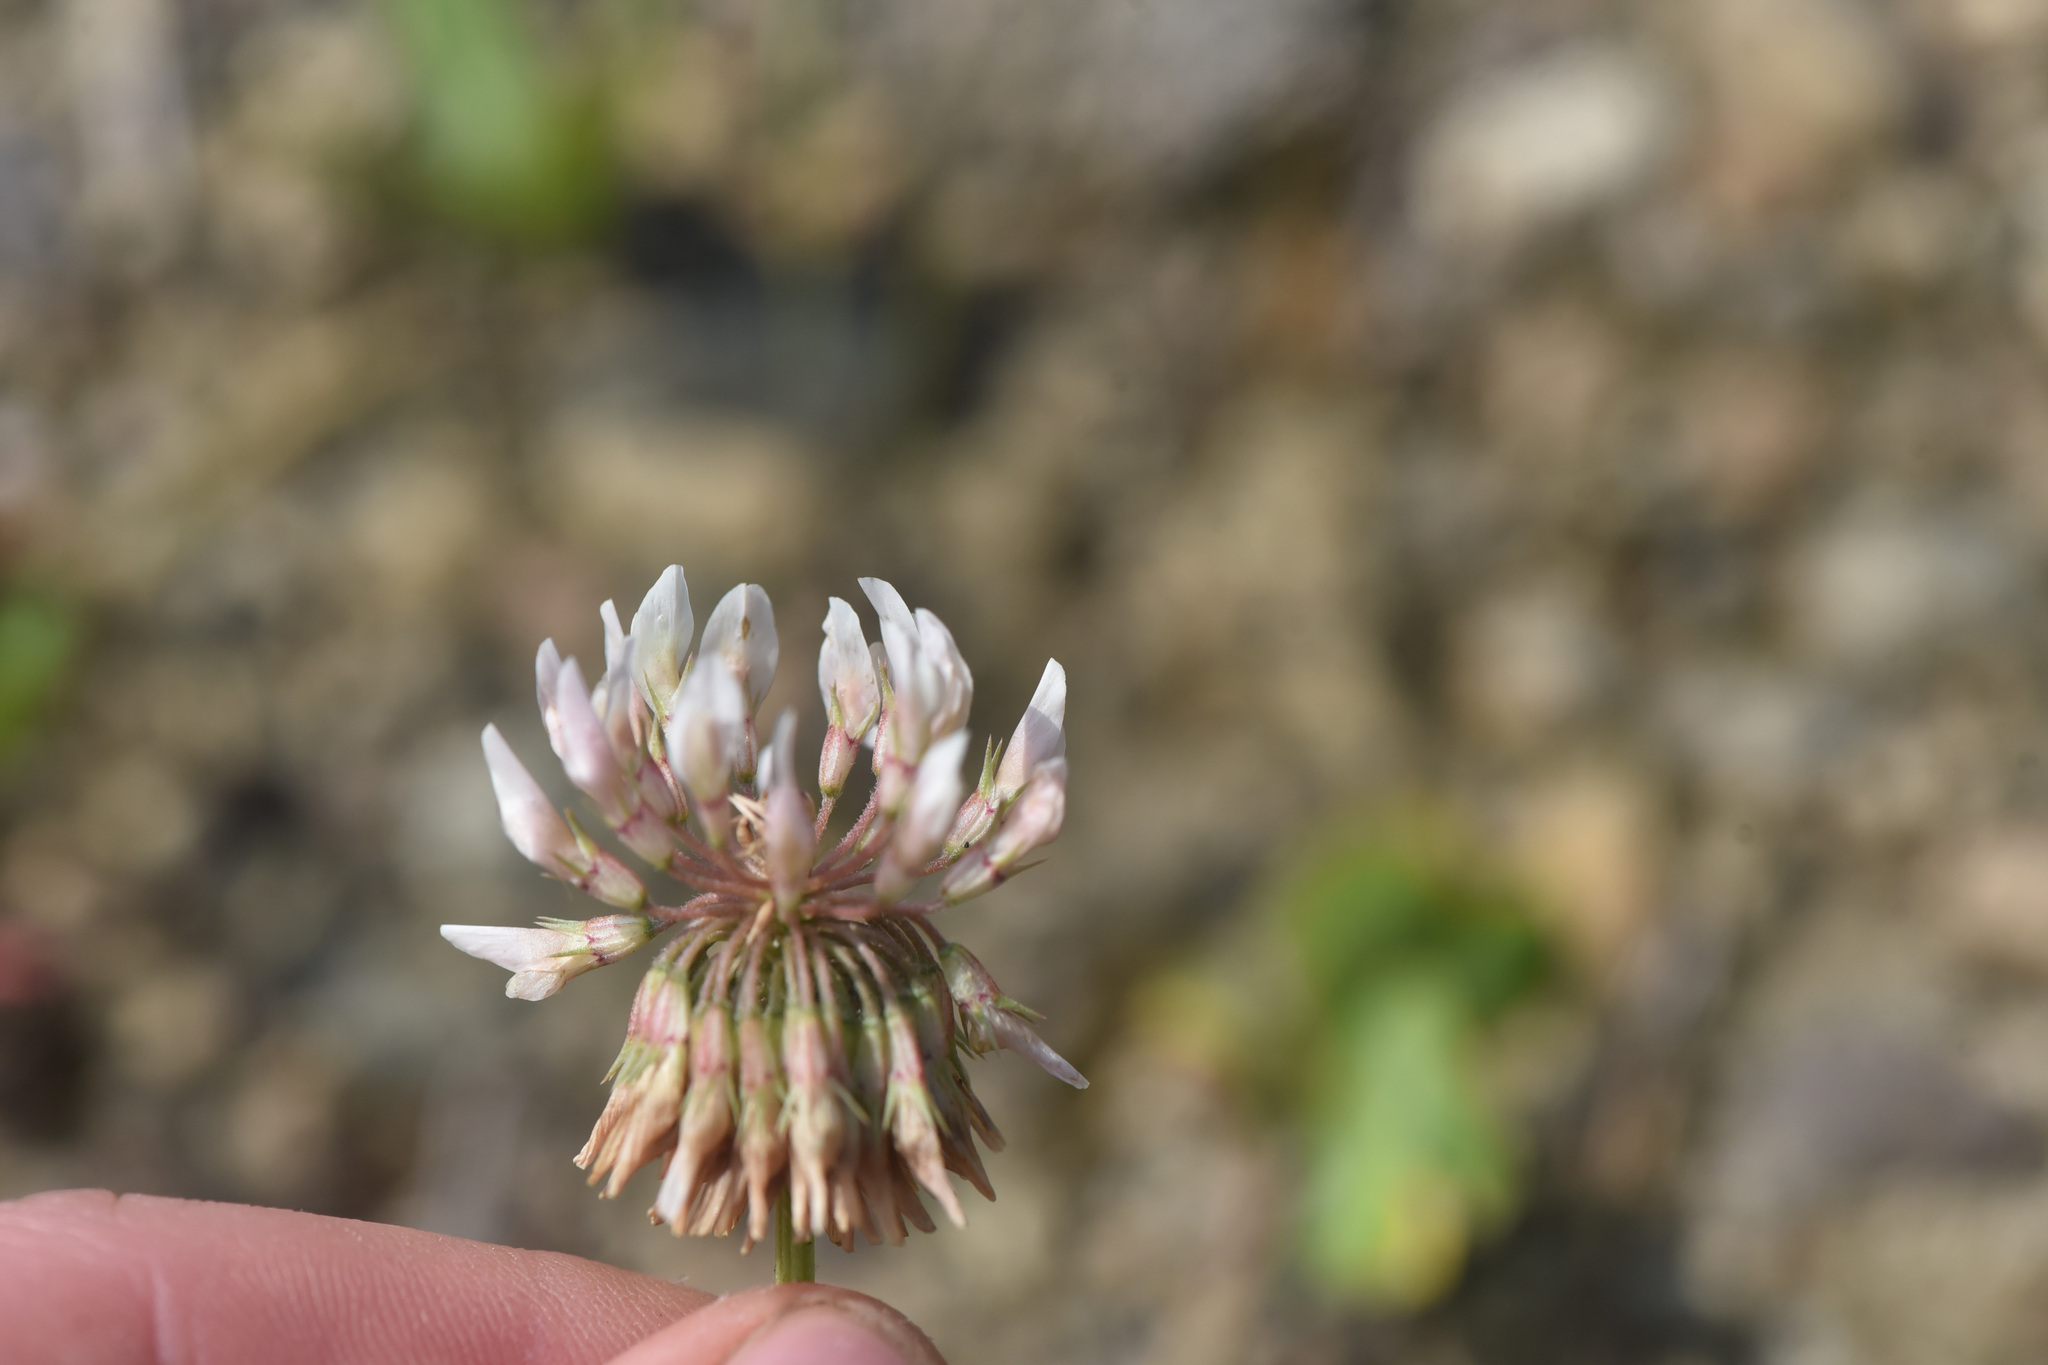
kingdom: Plantae
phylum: Tracheophyta
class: Magnoliopsida
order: Fabales
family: Fabaceae
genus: Trifolium
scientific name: Trifolium repens
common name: White clover
